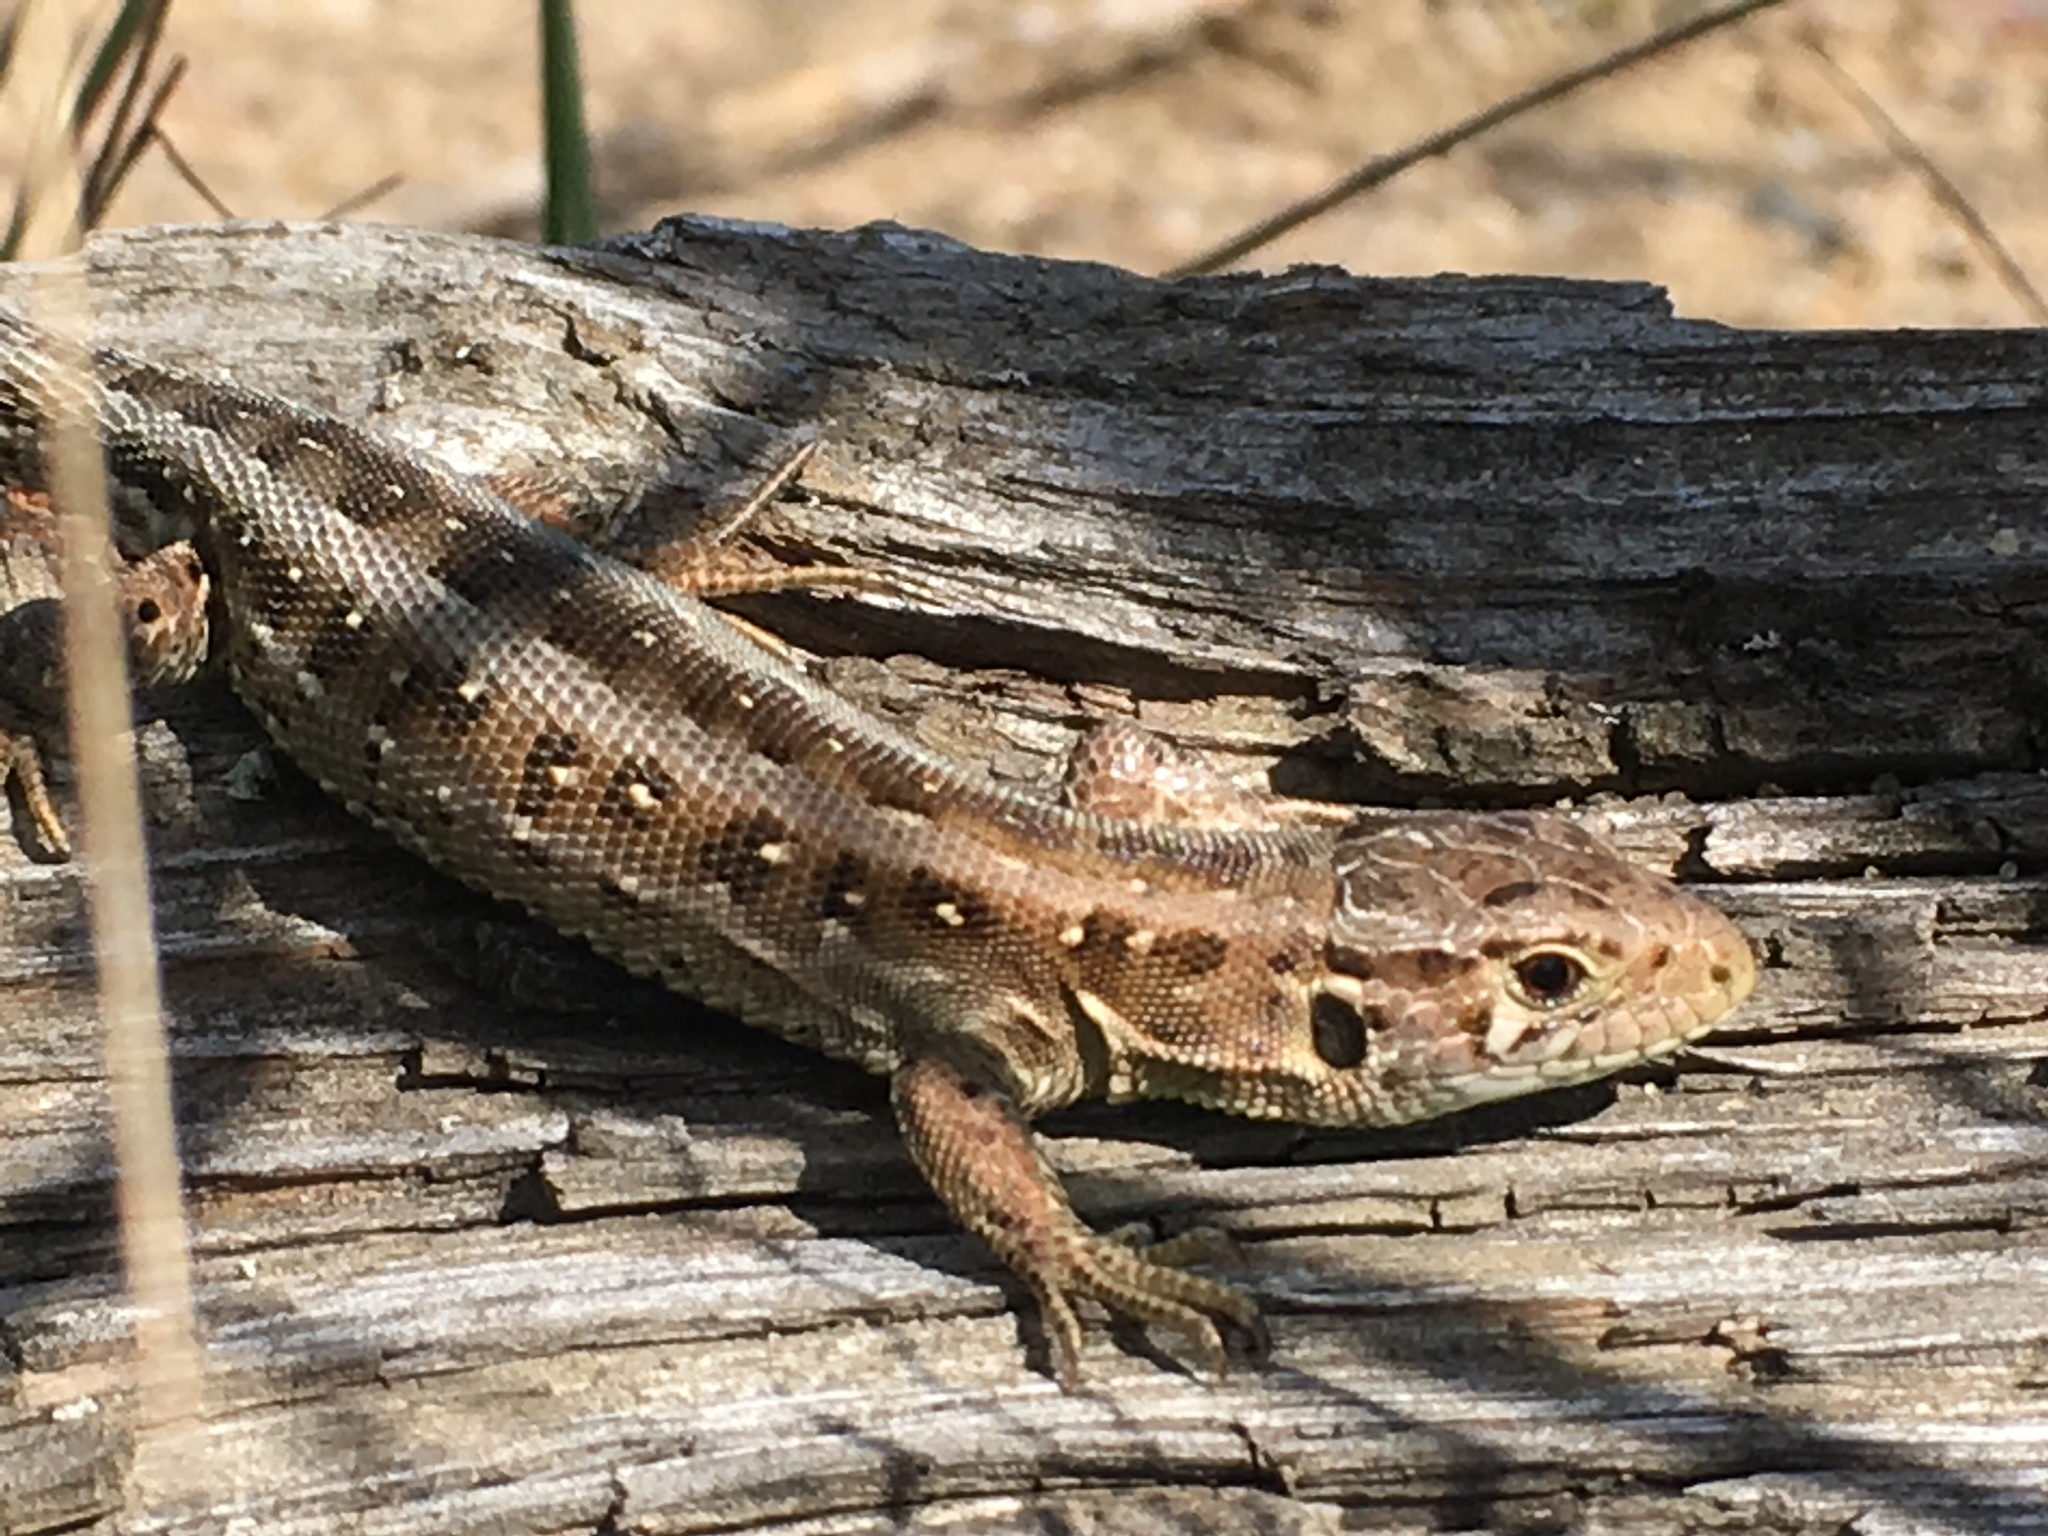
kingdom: Animalia
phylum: Chordata
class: Squamata
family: Lacertidae
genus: Lacerta
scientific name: Lacerta agilis
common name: Sand lizard
